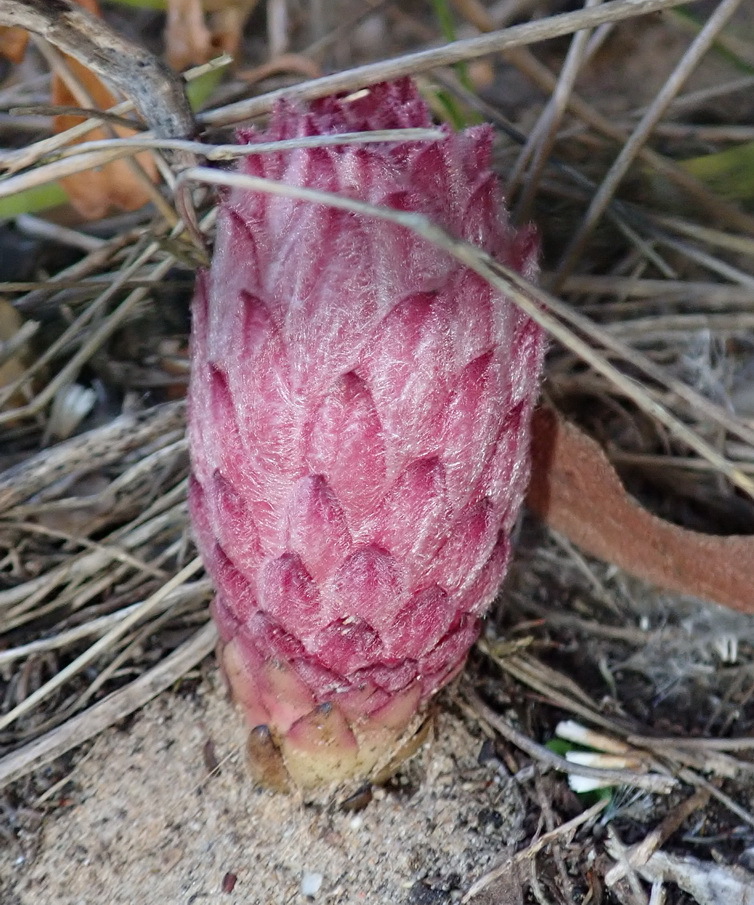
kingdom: Plantae
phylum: Tracheophyta
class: Magnoliopsida
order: Lamiales
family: Orobanchaceae
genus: Hyobanche
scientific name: Hyobanche robusta
